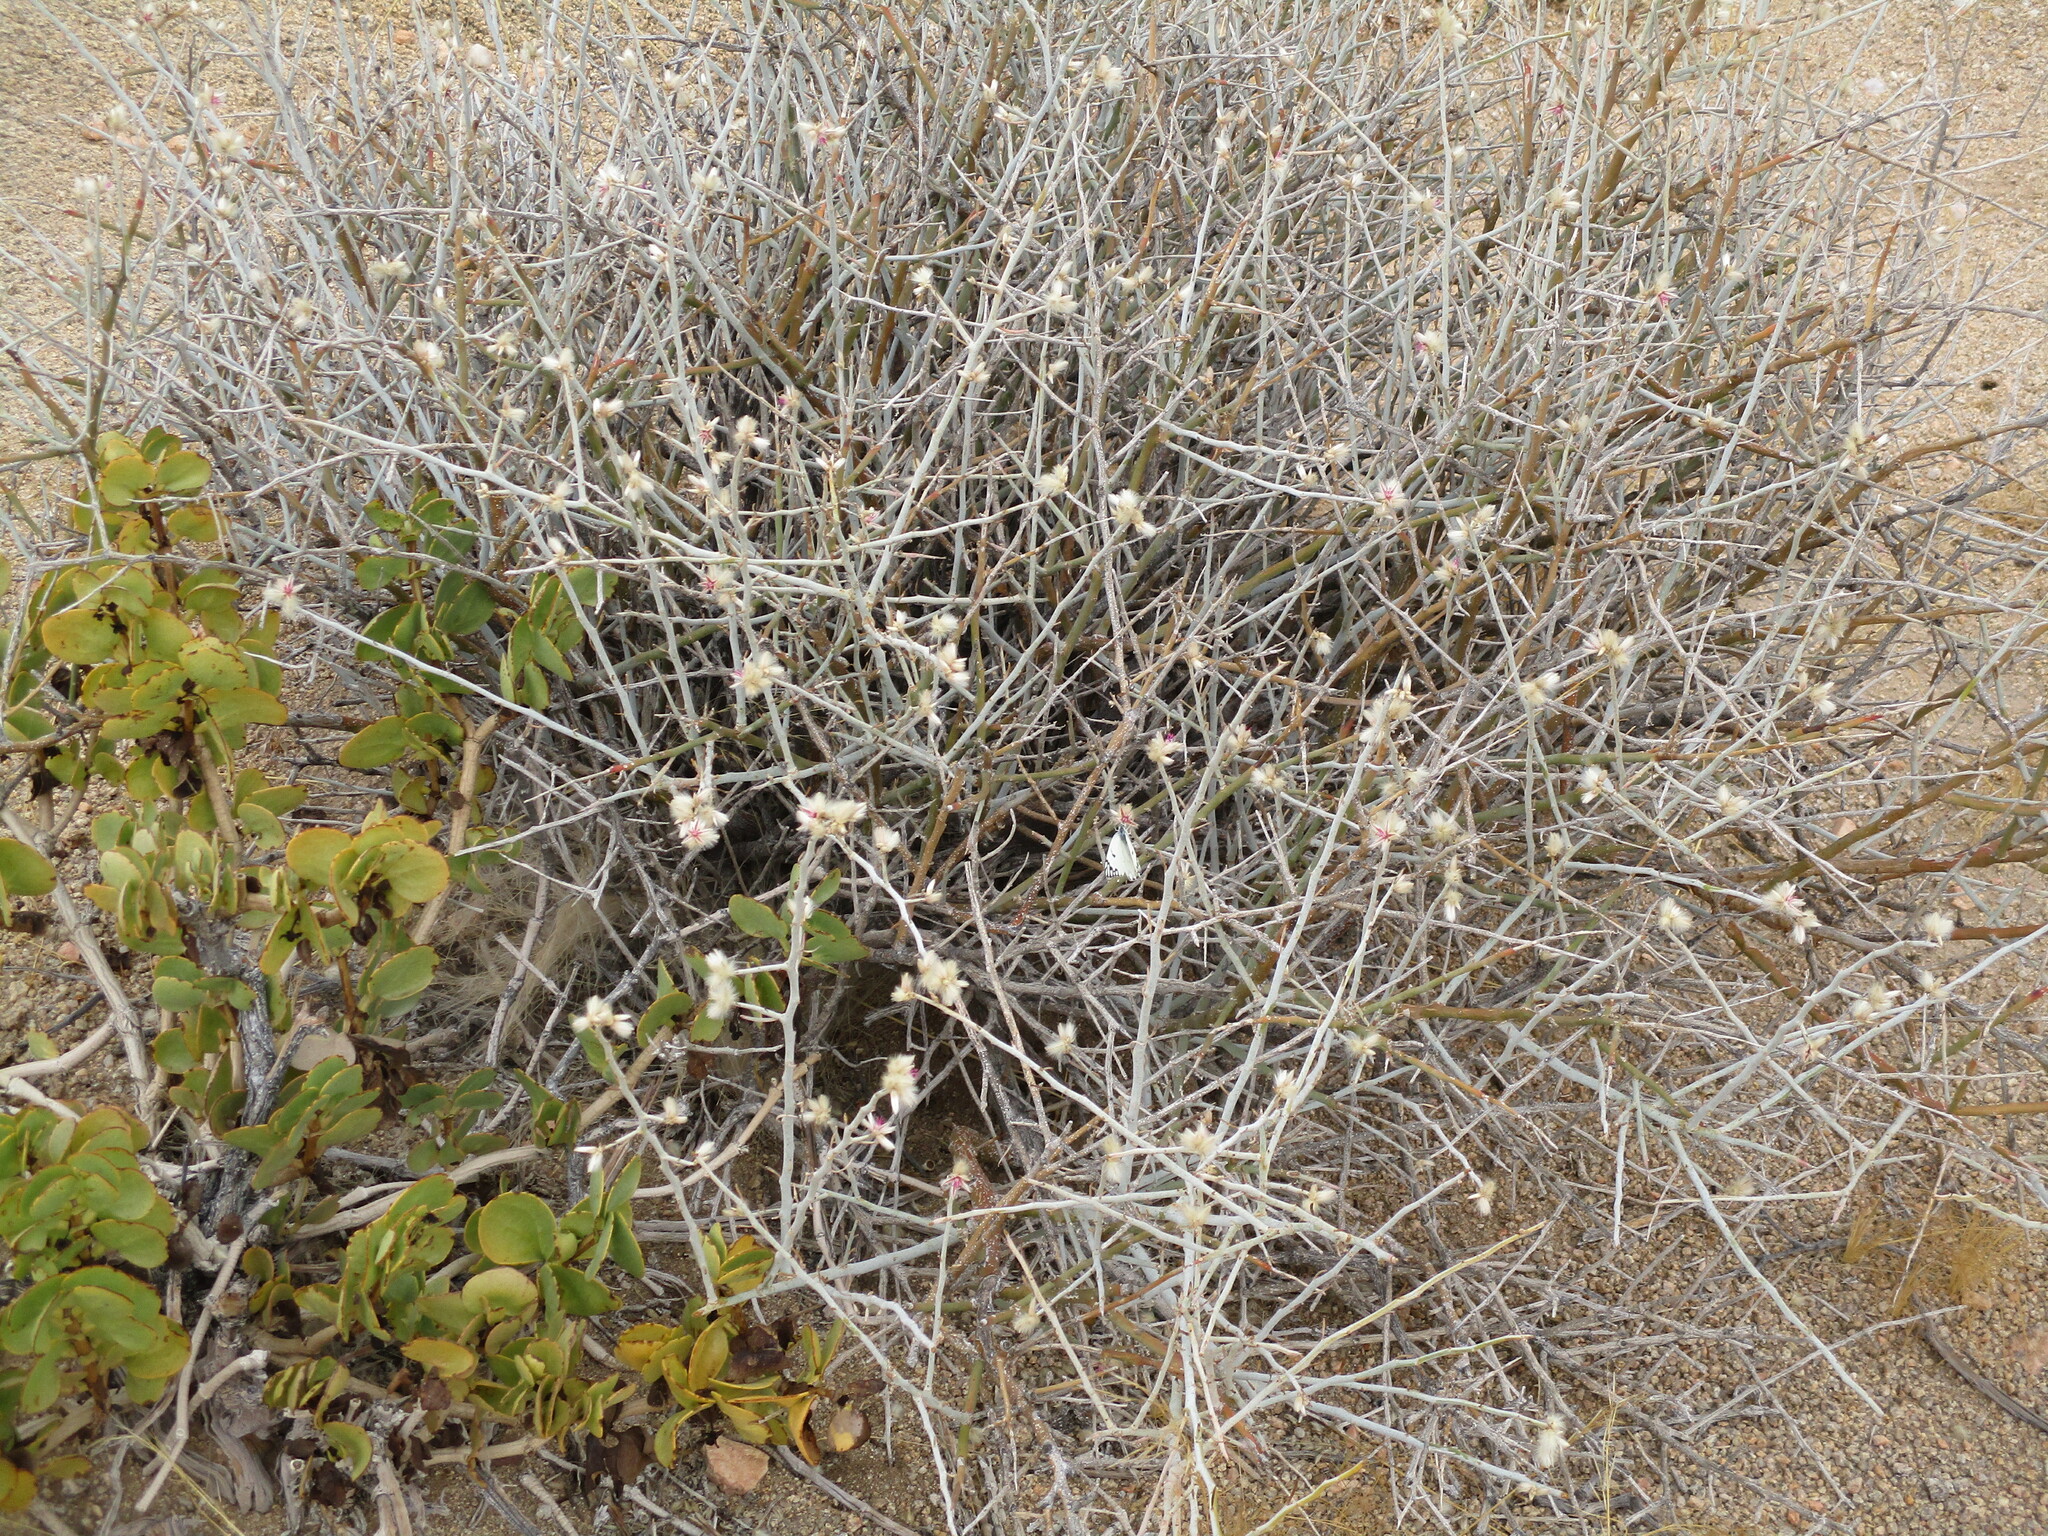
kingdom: Animalia
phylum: Arthropoda
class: Insecta
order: Lepidoptera
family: Pieridae
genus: Belenois
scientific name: Belenois aurota
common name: Brown-veined white
